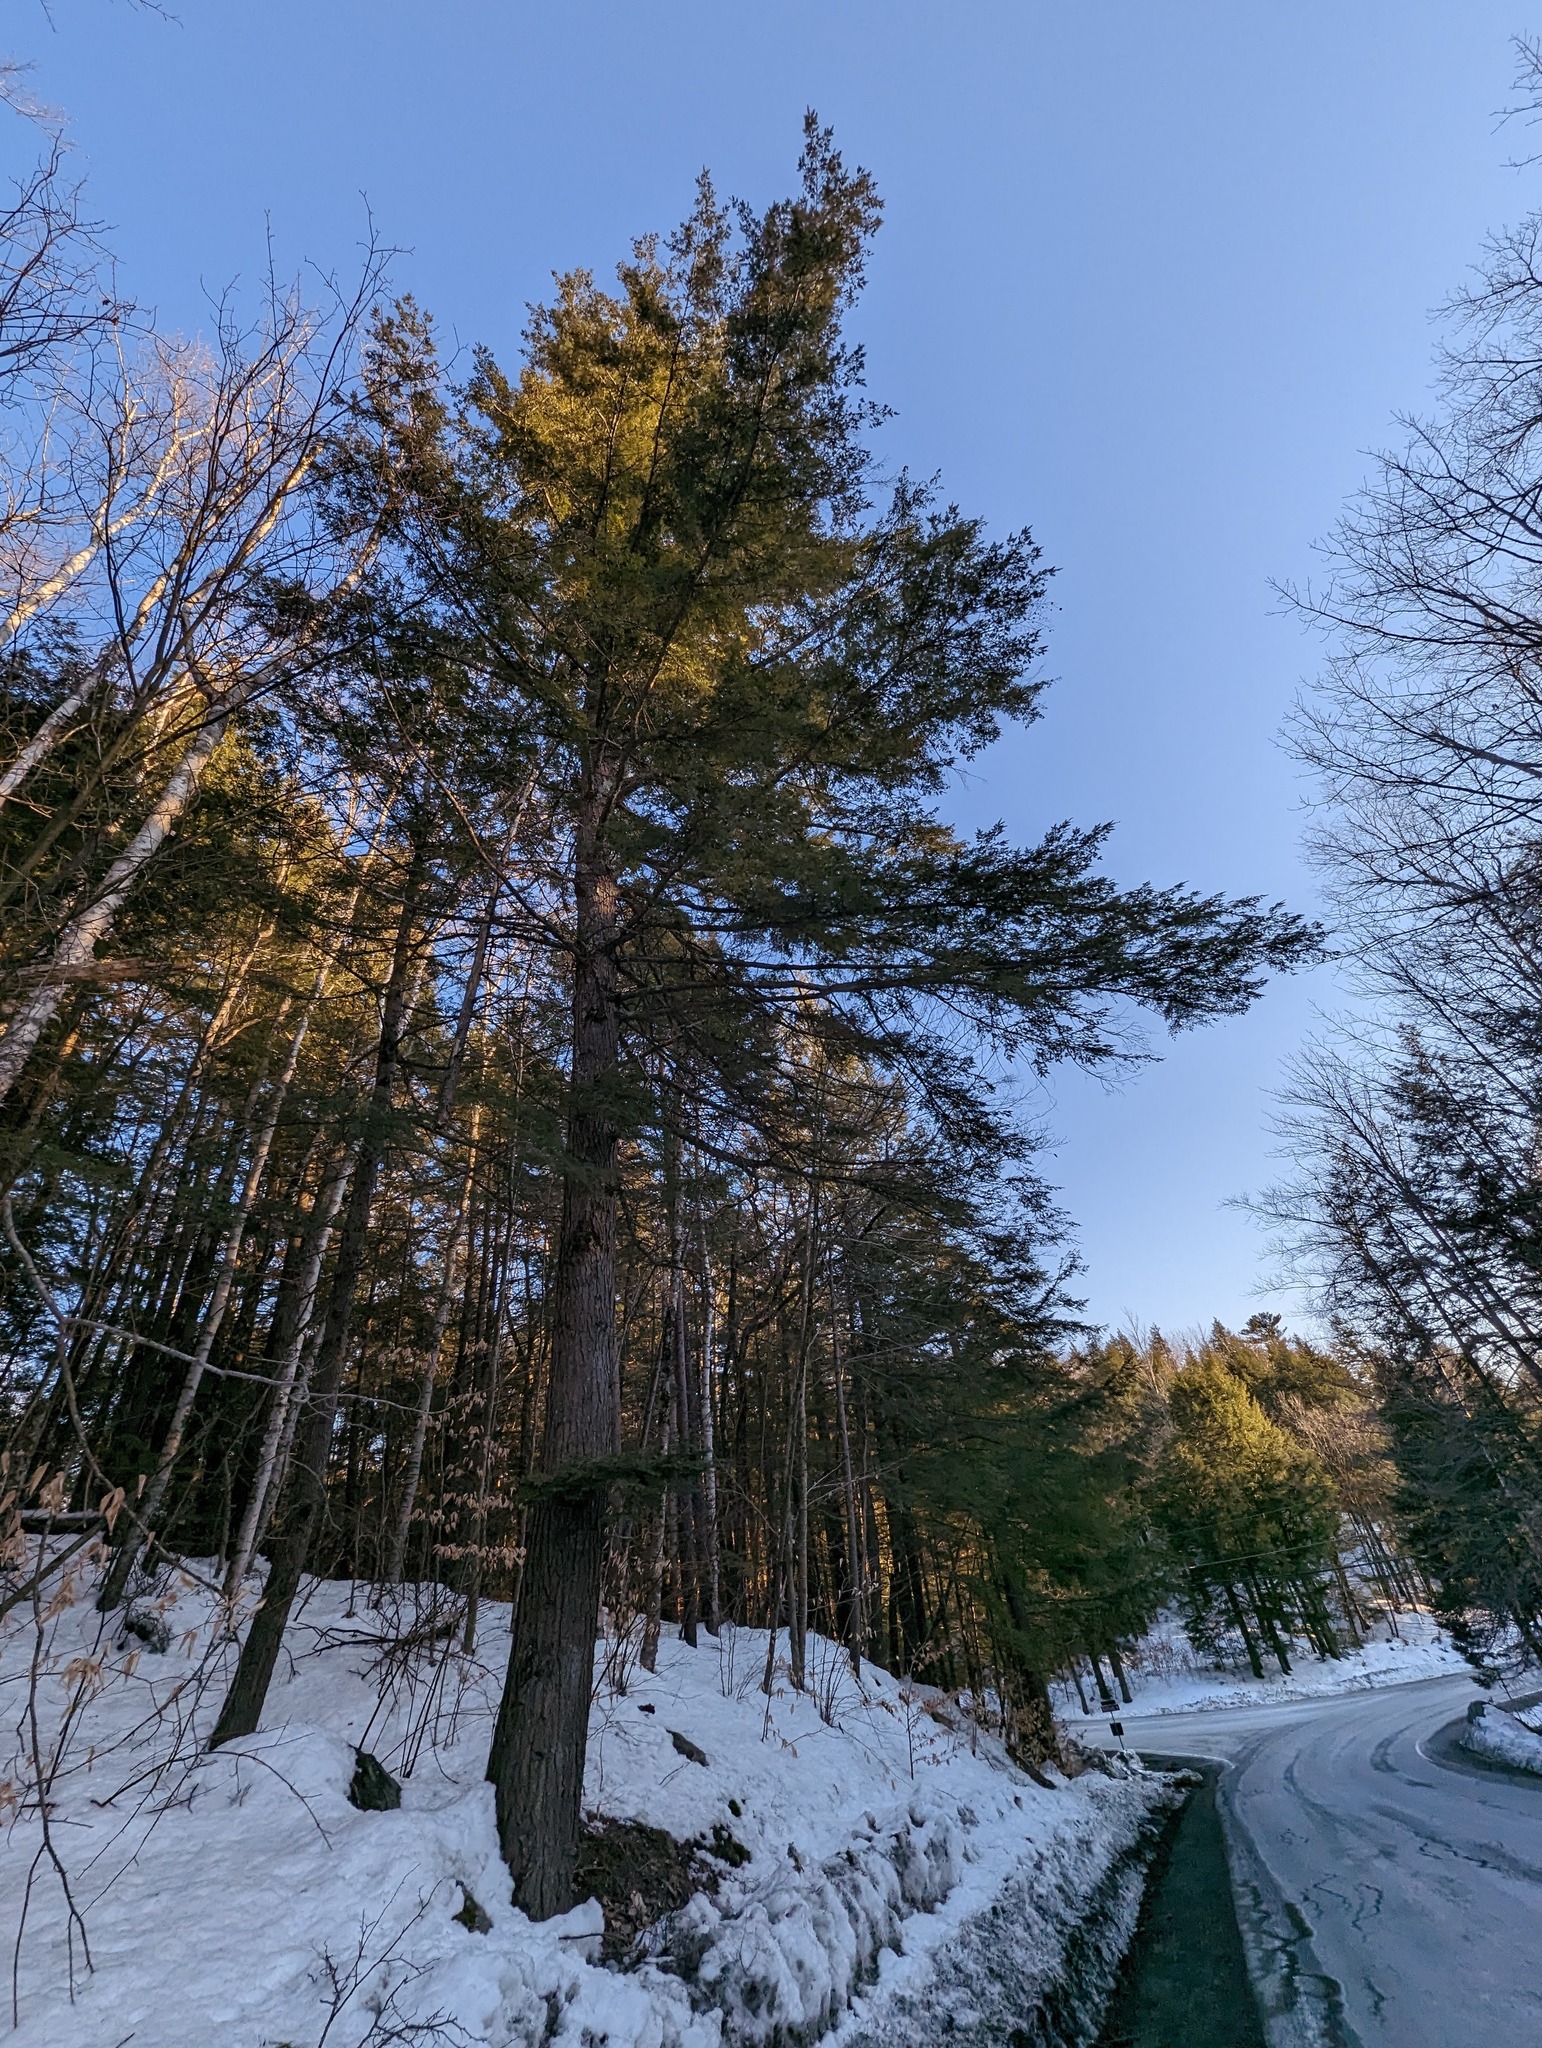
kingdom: Plantae
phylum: Tracheophyta
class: Pinopsida
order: Pinales
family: Pinaceae
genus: Tsuga
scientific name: Tsuga canadensis
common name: Eastern hemlock
